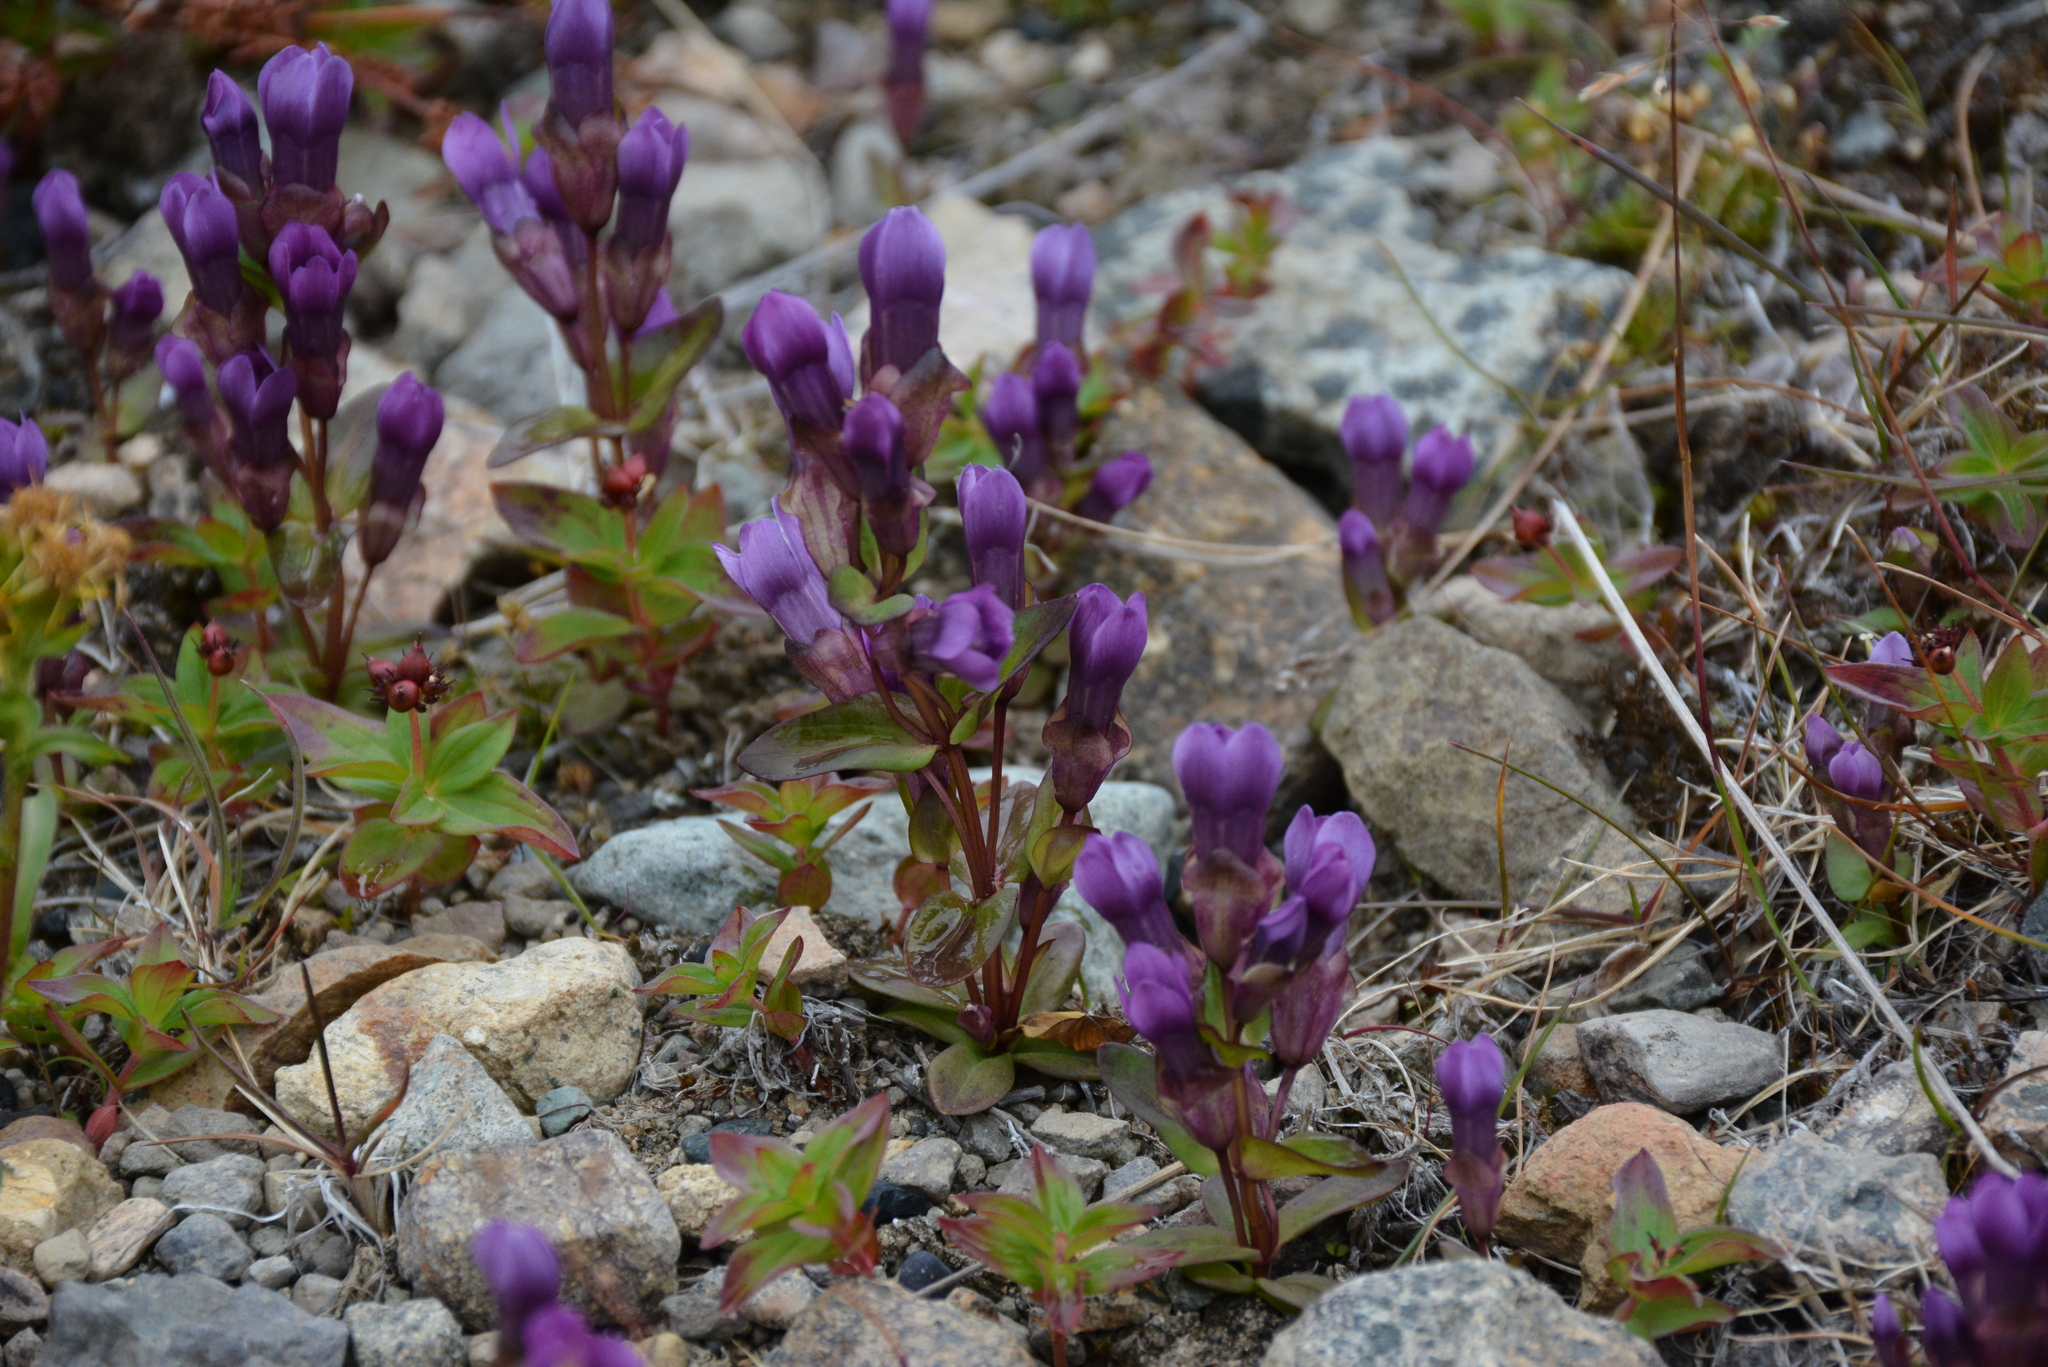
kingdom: Plantae
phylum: Tracheophyta
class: Magnoliopsida
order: Gentianales
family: Gentianaceae
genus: Gentianella
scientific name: Gentianella auriculata
